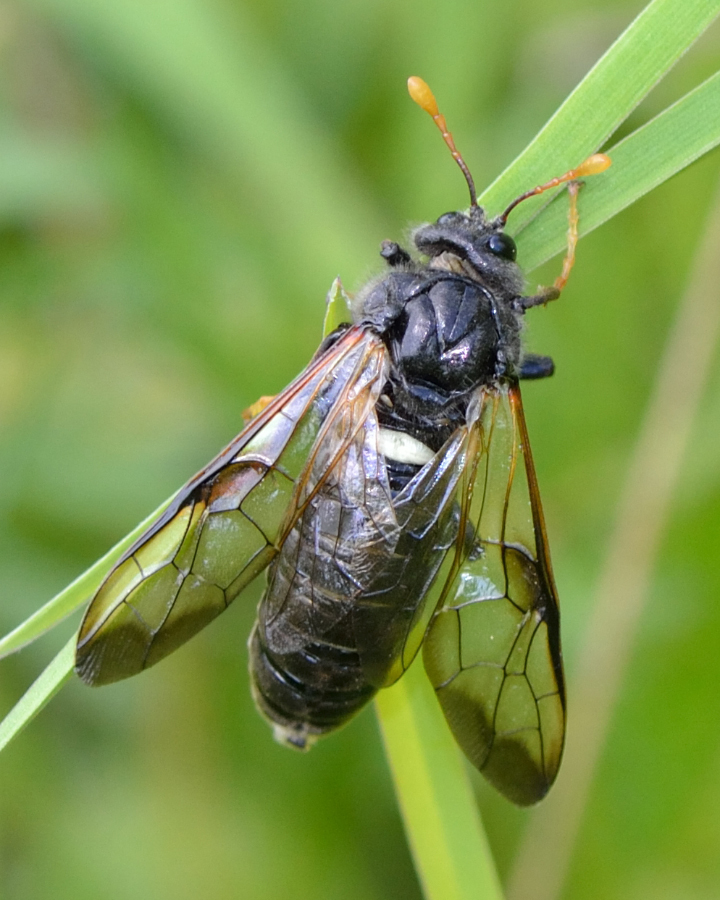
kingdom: Animalia
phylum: Arthropoda
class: Insecta
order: Hymenoptera
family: Cimbicidae
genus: Cimbex
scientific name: Cimbex femoratus
